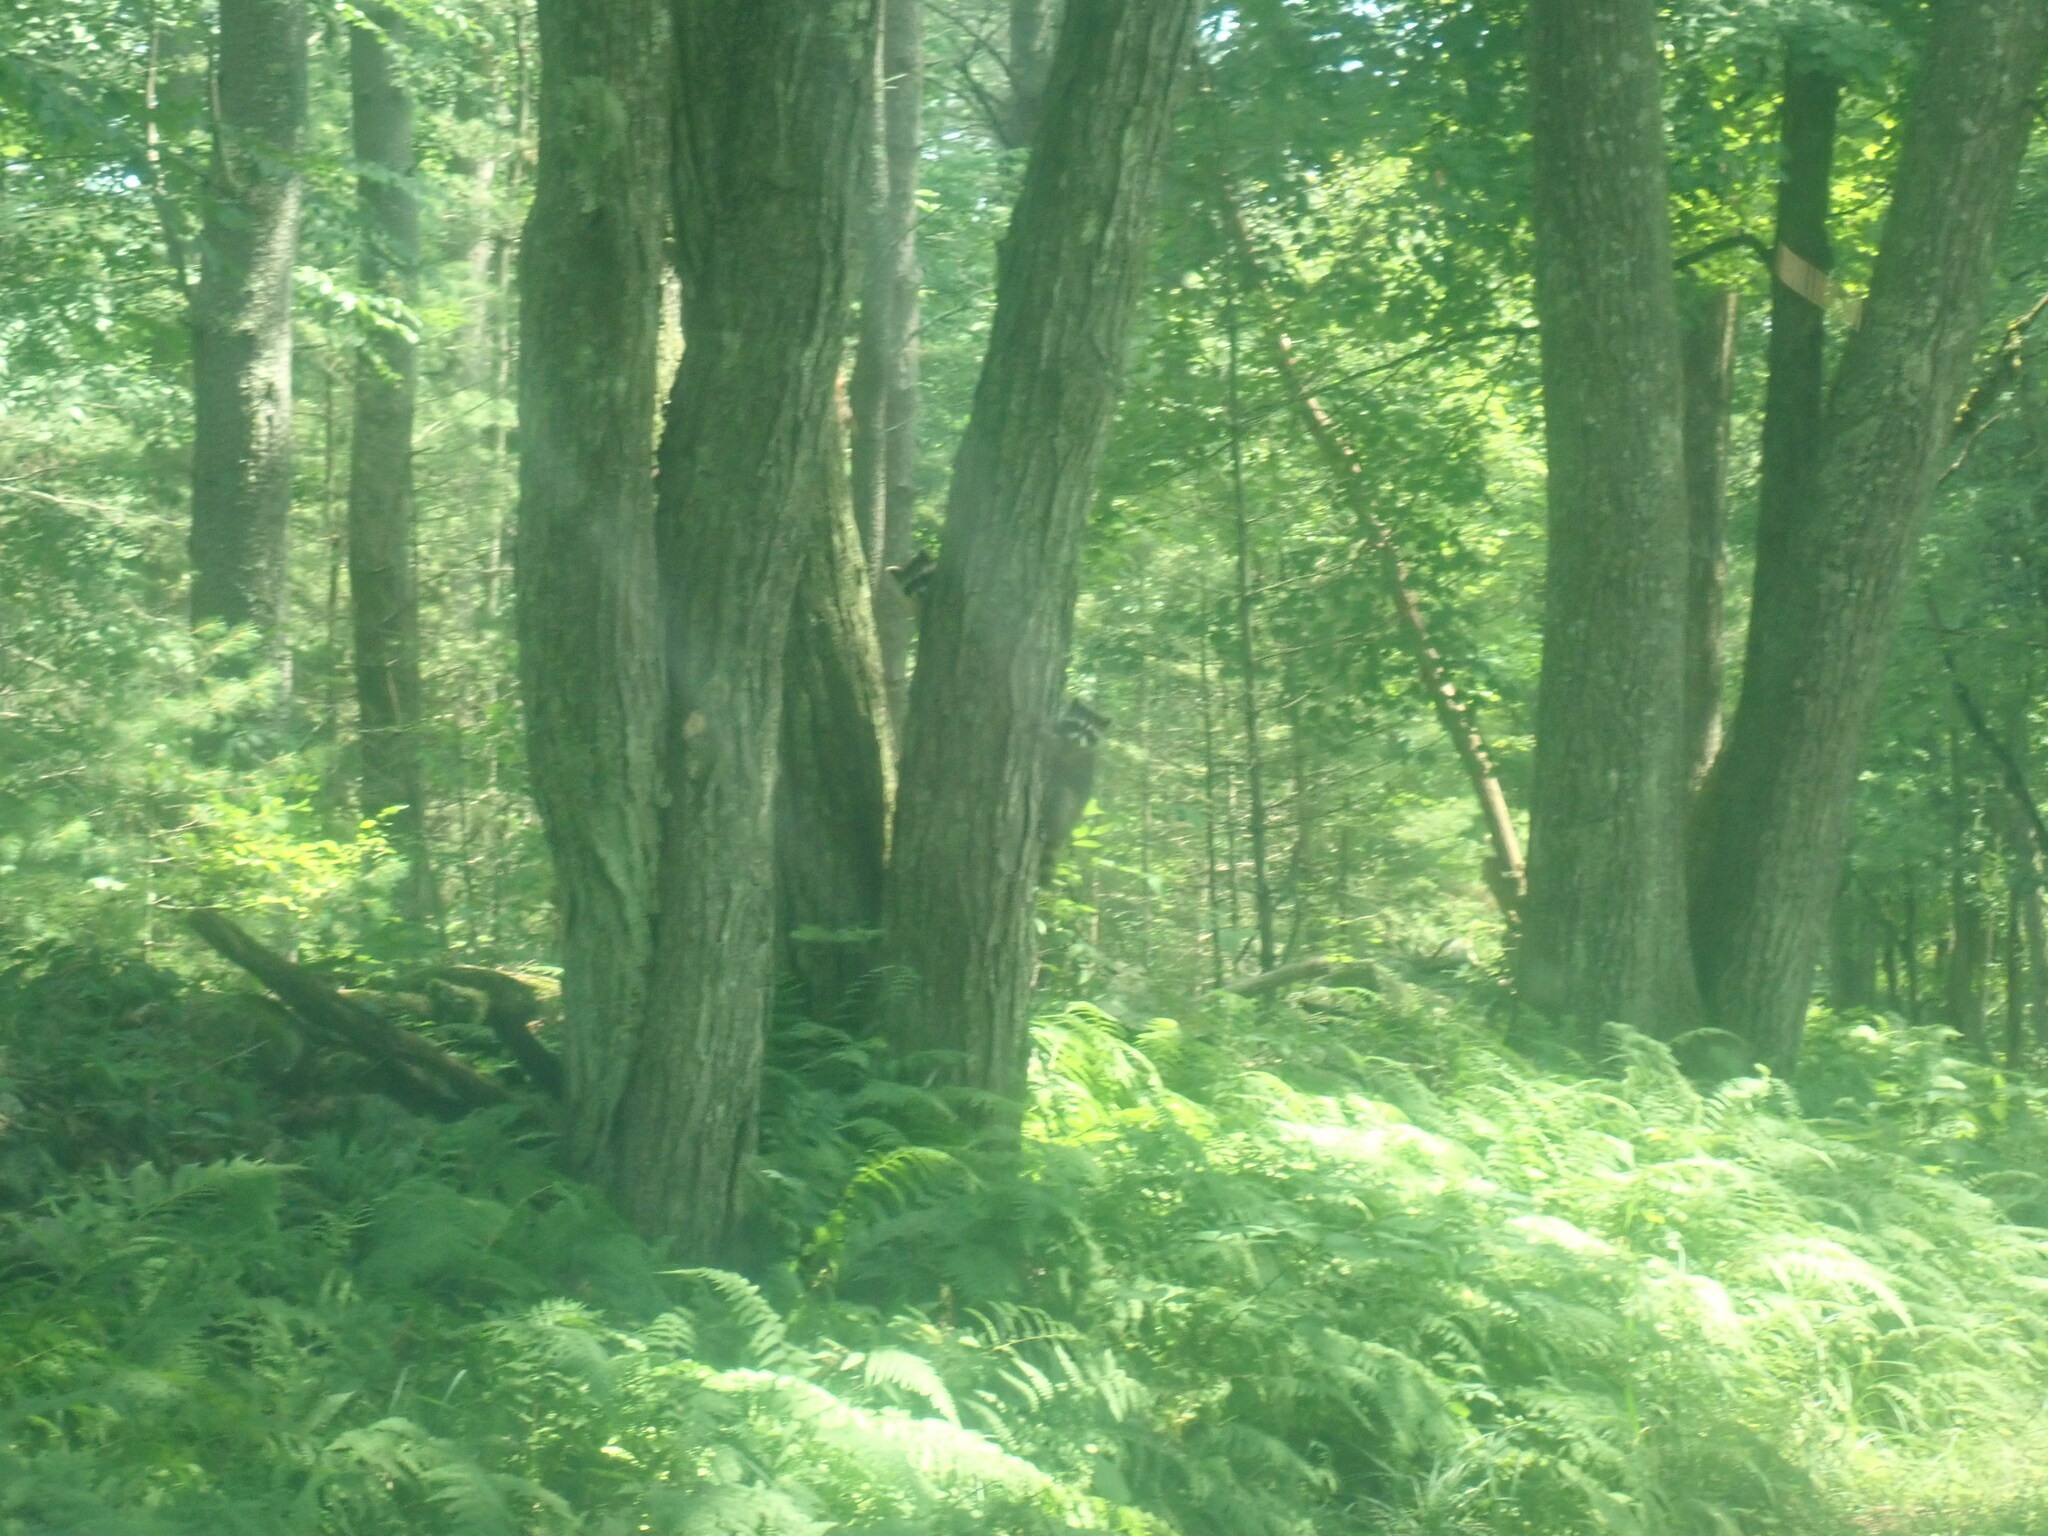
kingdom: Animalia
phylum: Chordata
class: Mammalia
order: Carnivora
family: Procyonidae
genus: Procyon
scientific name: Procyon lotor
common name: Raccoon
